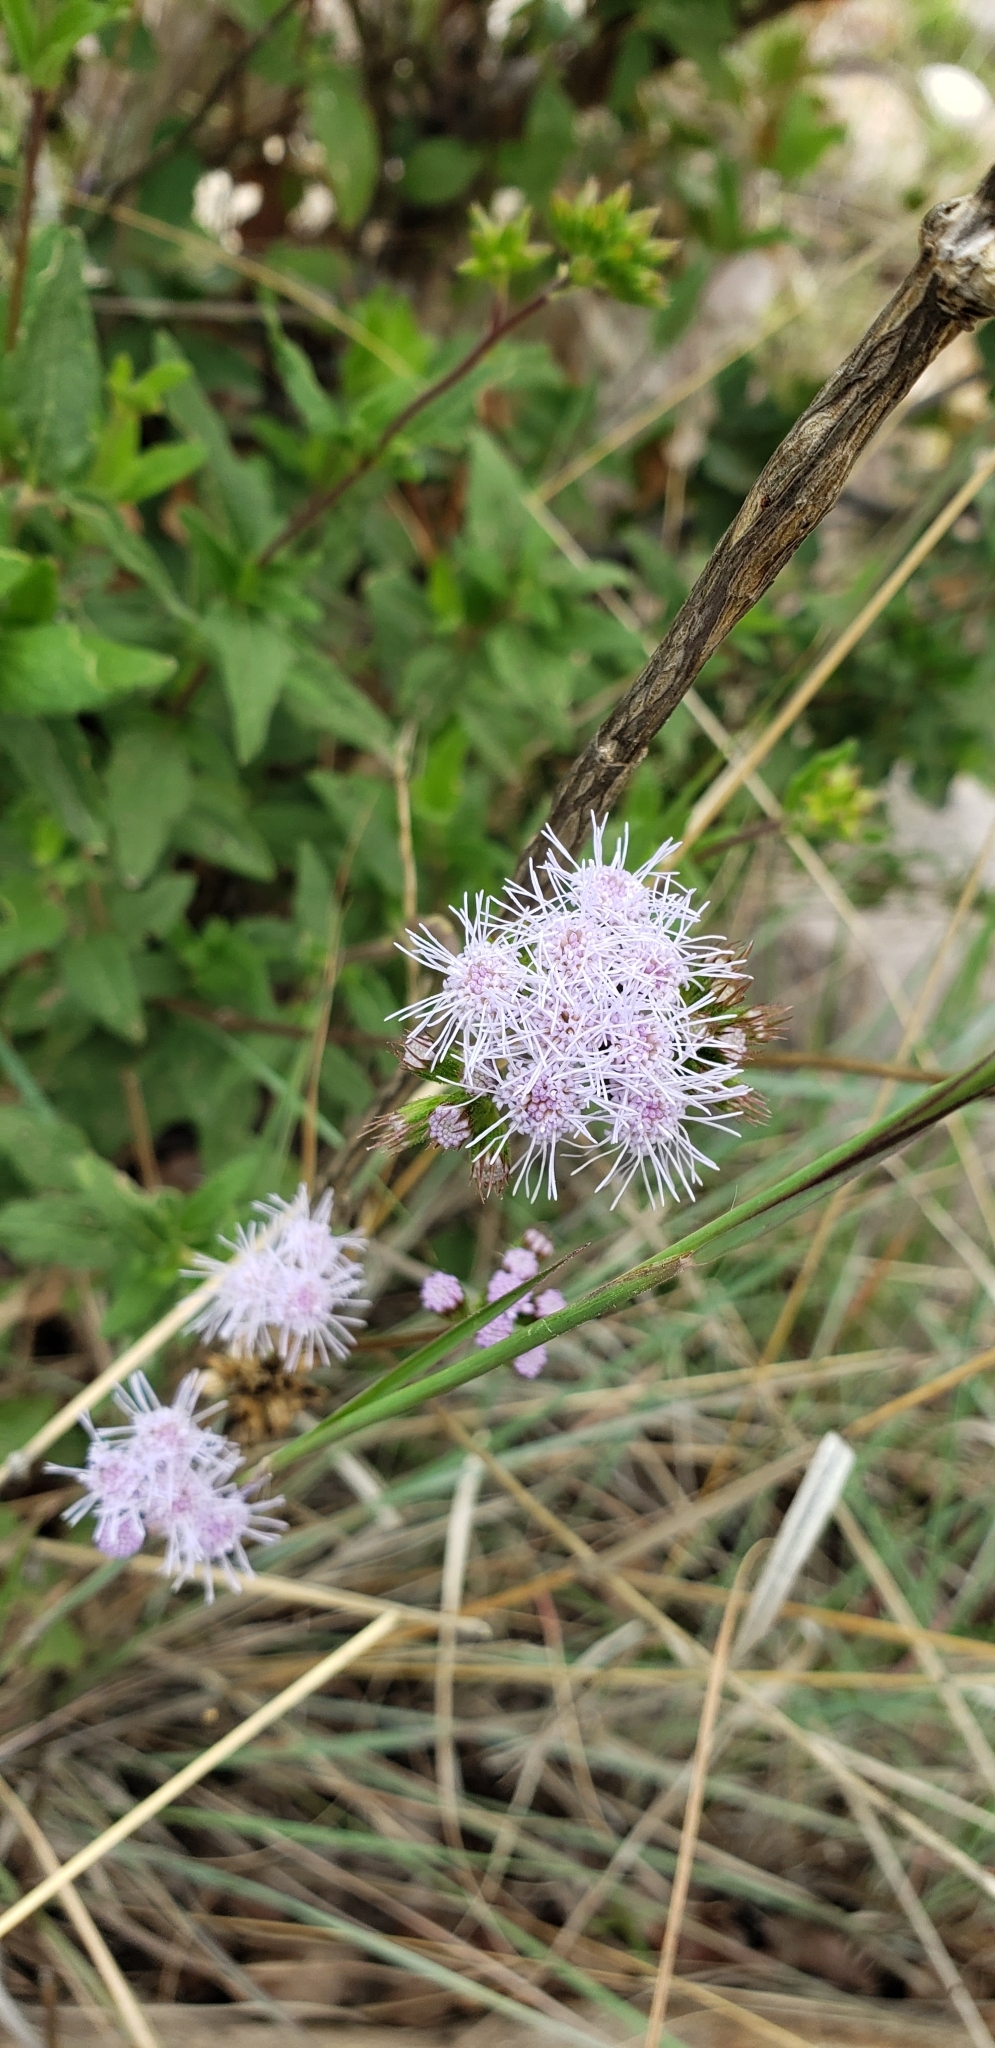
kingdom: Plantae
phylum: Tracheophyta
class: Magnoliopsida
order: Asterales
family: Asteraceae
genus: Ageratum
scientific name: Ageratum corymbosum
